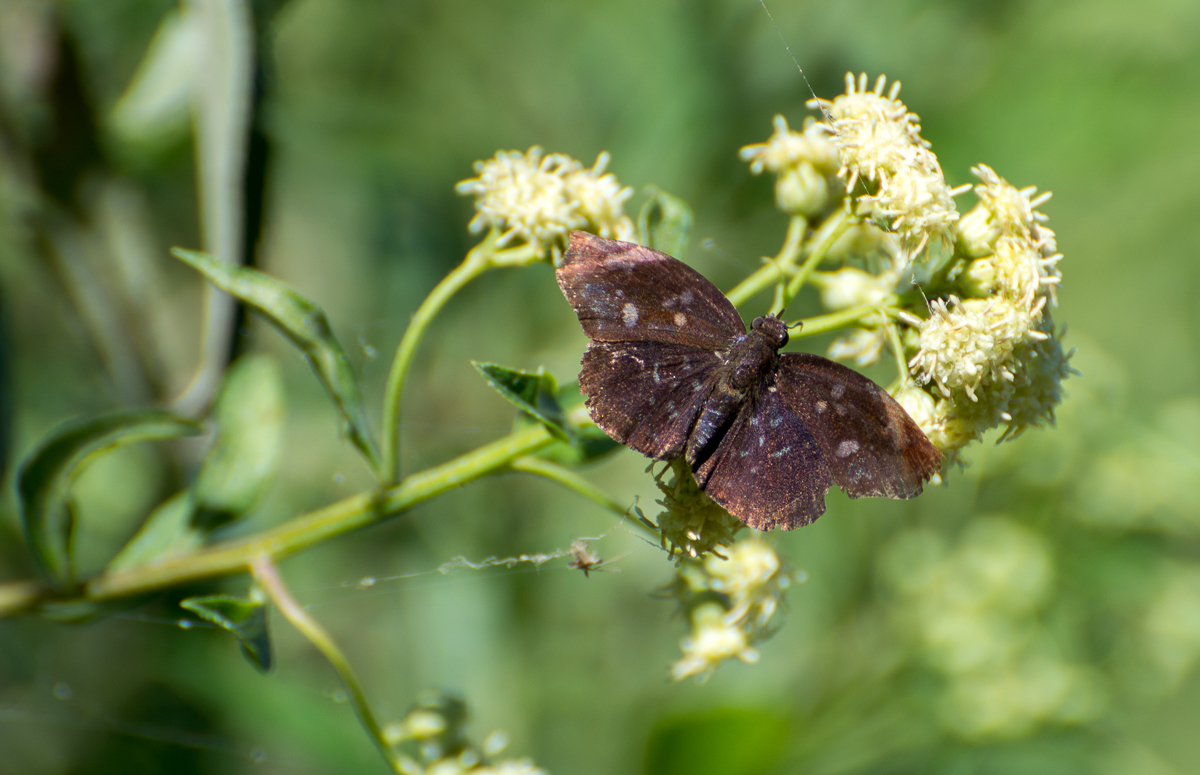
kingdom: Animalia
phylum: Arthropoda
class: Insecta
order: Lepidoptera
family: Hesperiidae
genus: Achlyodes
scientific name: Achlyodes thraso
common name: Sickle-winged skipper
